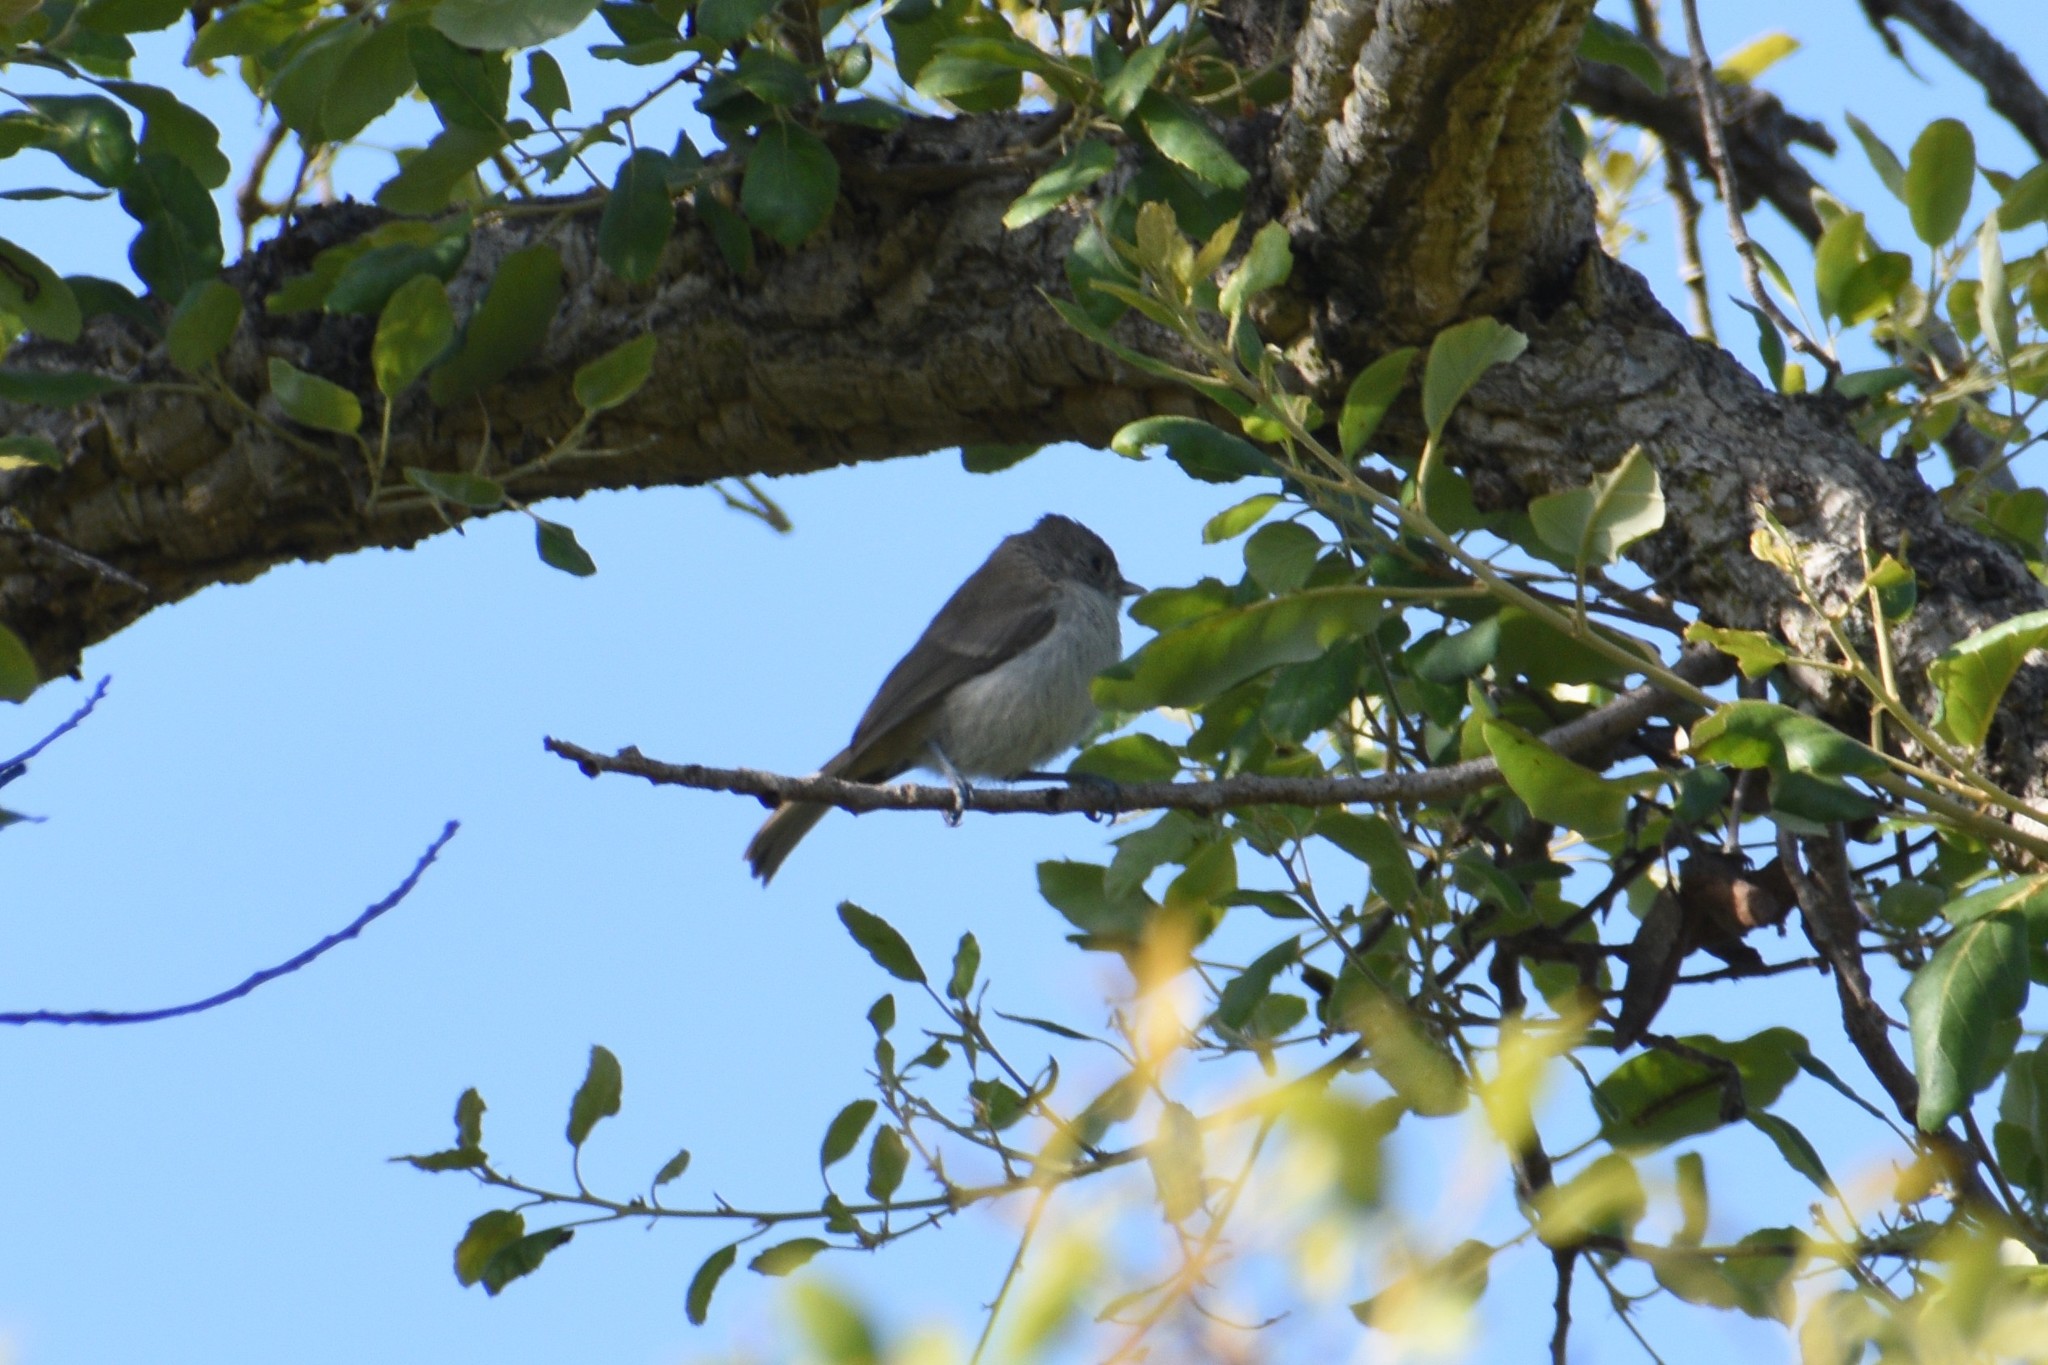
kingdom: Animalia
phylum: Chordata
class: Aves
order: Passeriformes
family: Paridae
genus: Baeolophus
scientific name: Baeolophus inornatus
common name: Oak titmouse
